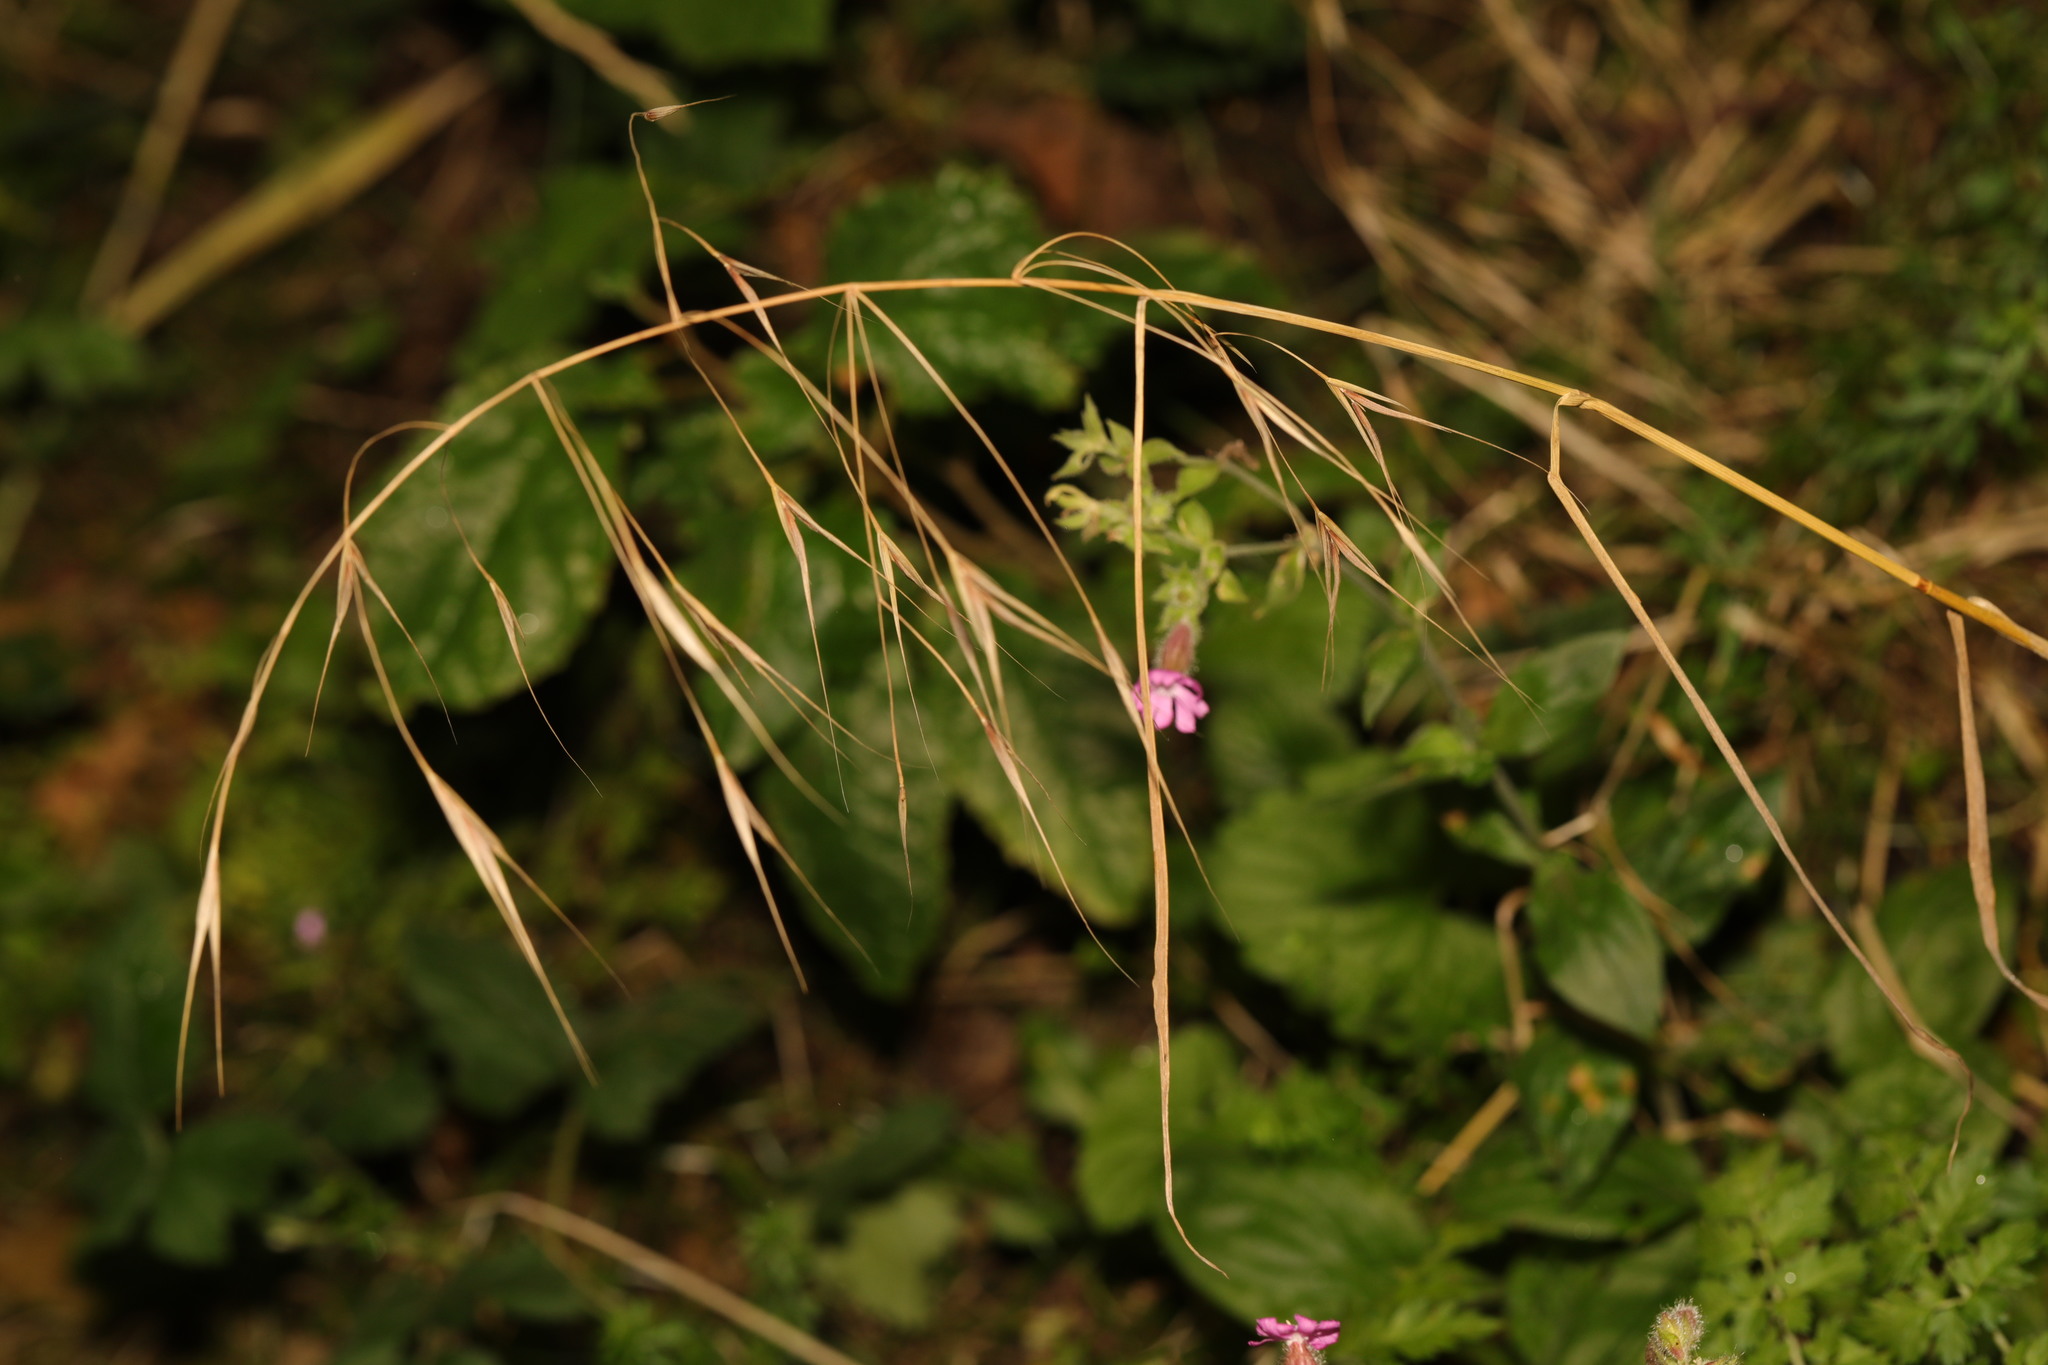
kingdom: Plantae
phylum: Tracheophyta
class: Liliopsida
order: Poales
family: Poaceae
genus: Bromus
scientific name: Bromus sterilis
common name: Poverty brome
